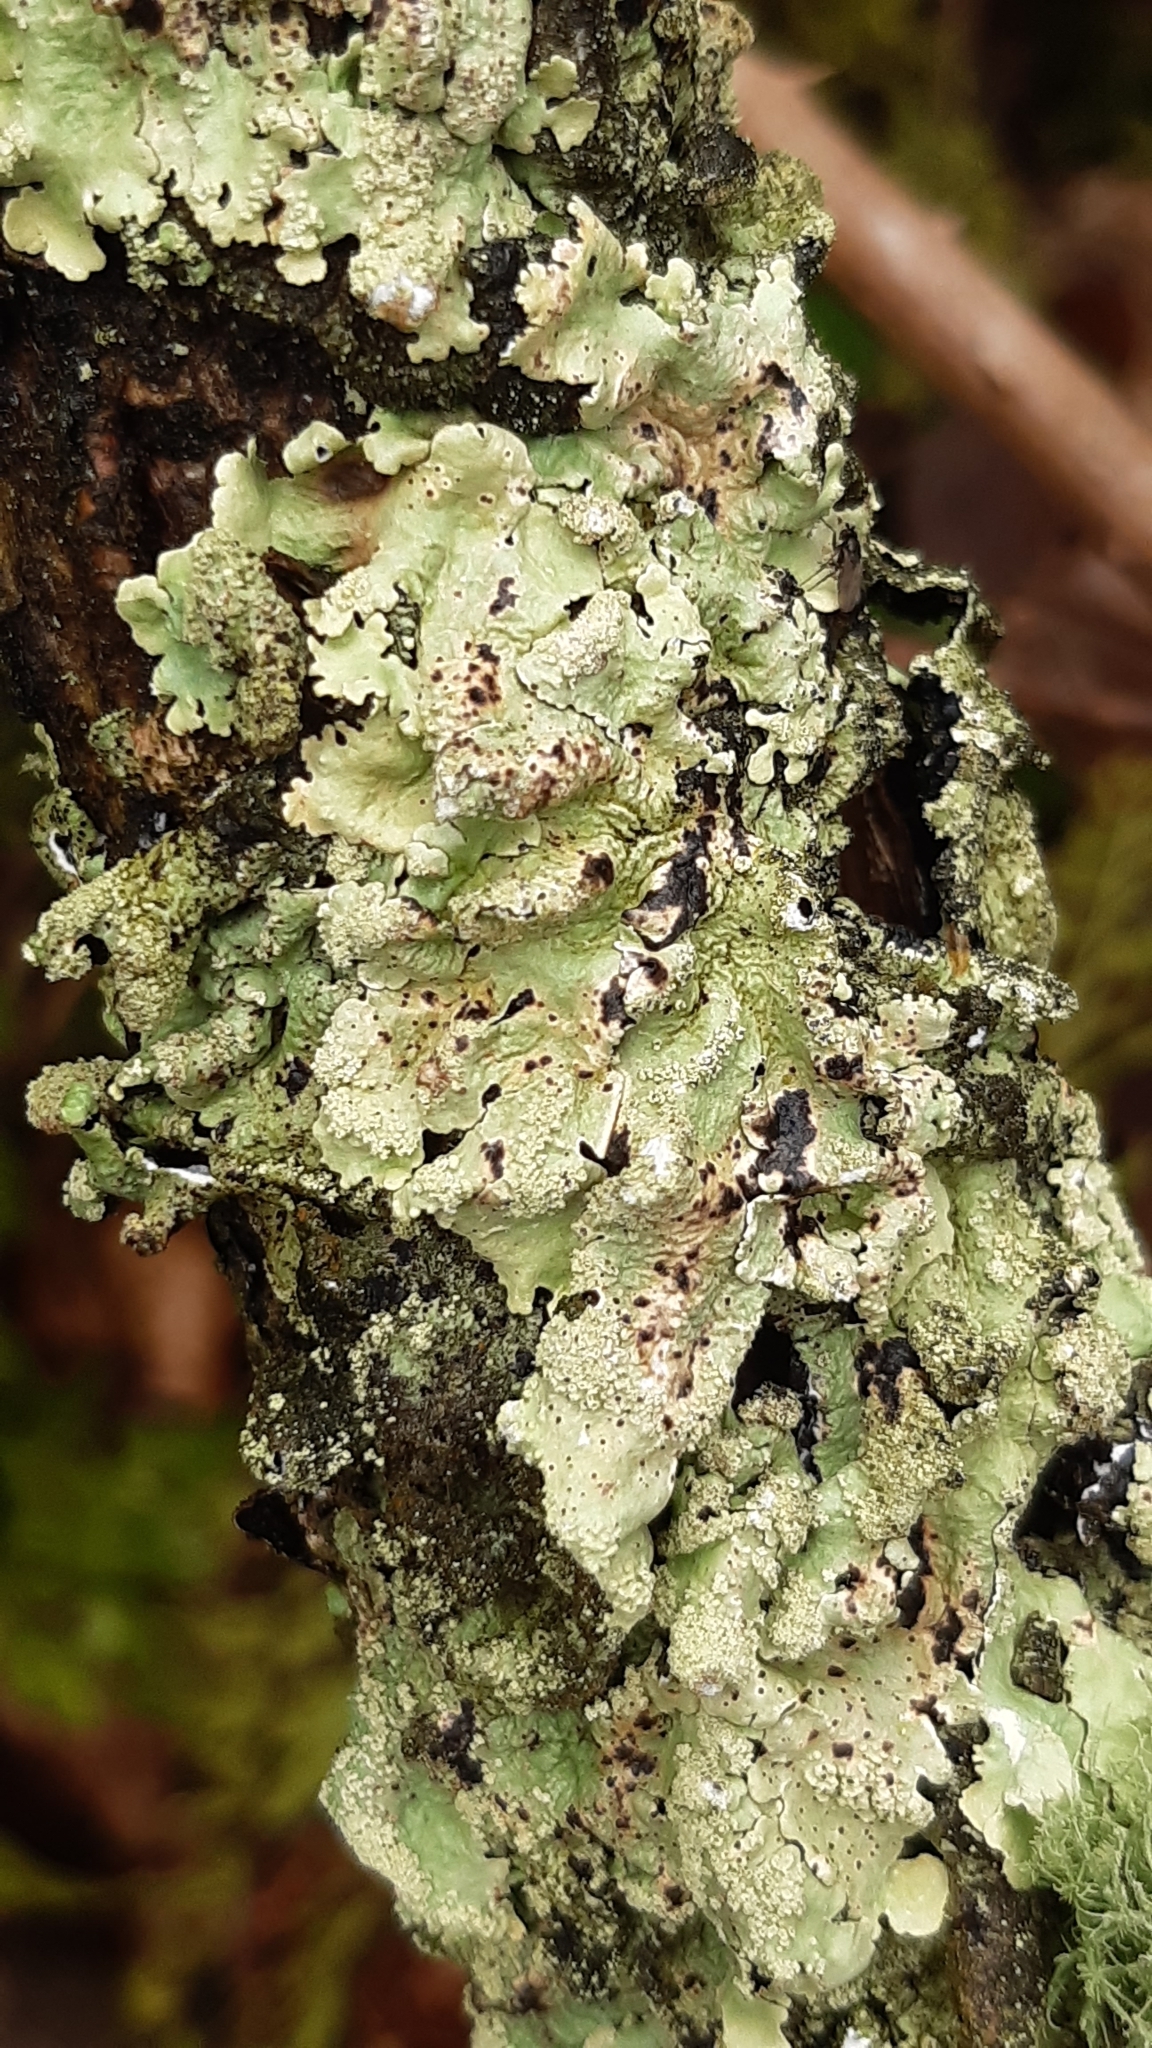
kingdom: Fungi
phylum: Ascomycota
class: Lecanoromycetes
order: Lecanorales
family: Parmeliaceae
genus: Flavoparmelia
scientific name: Flavoparmelia caperata
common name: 40-mile per hour lichen
